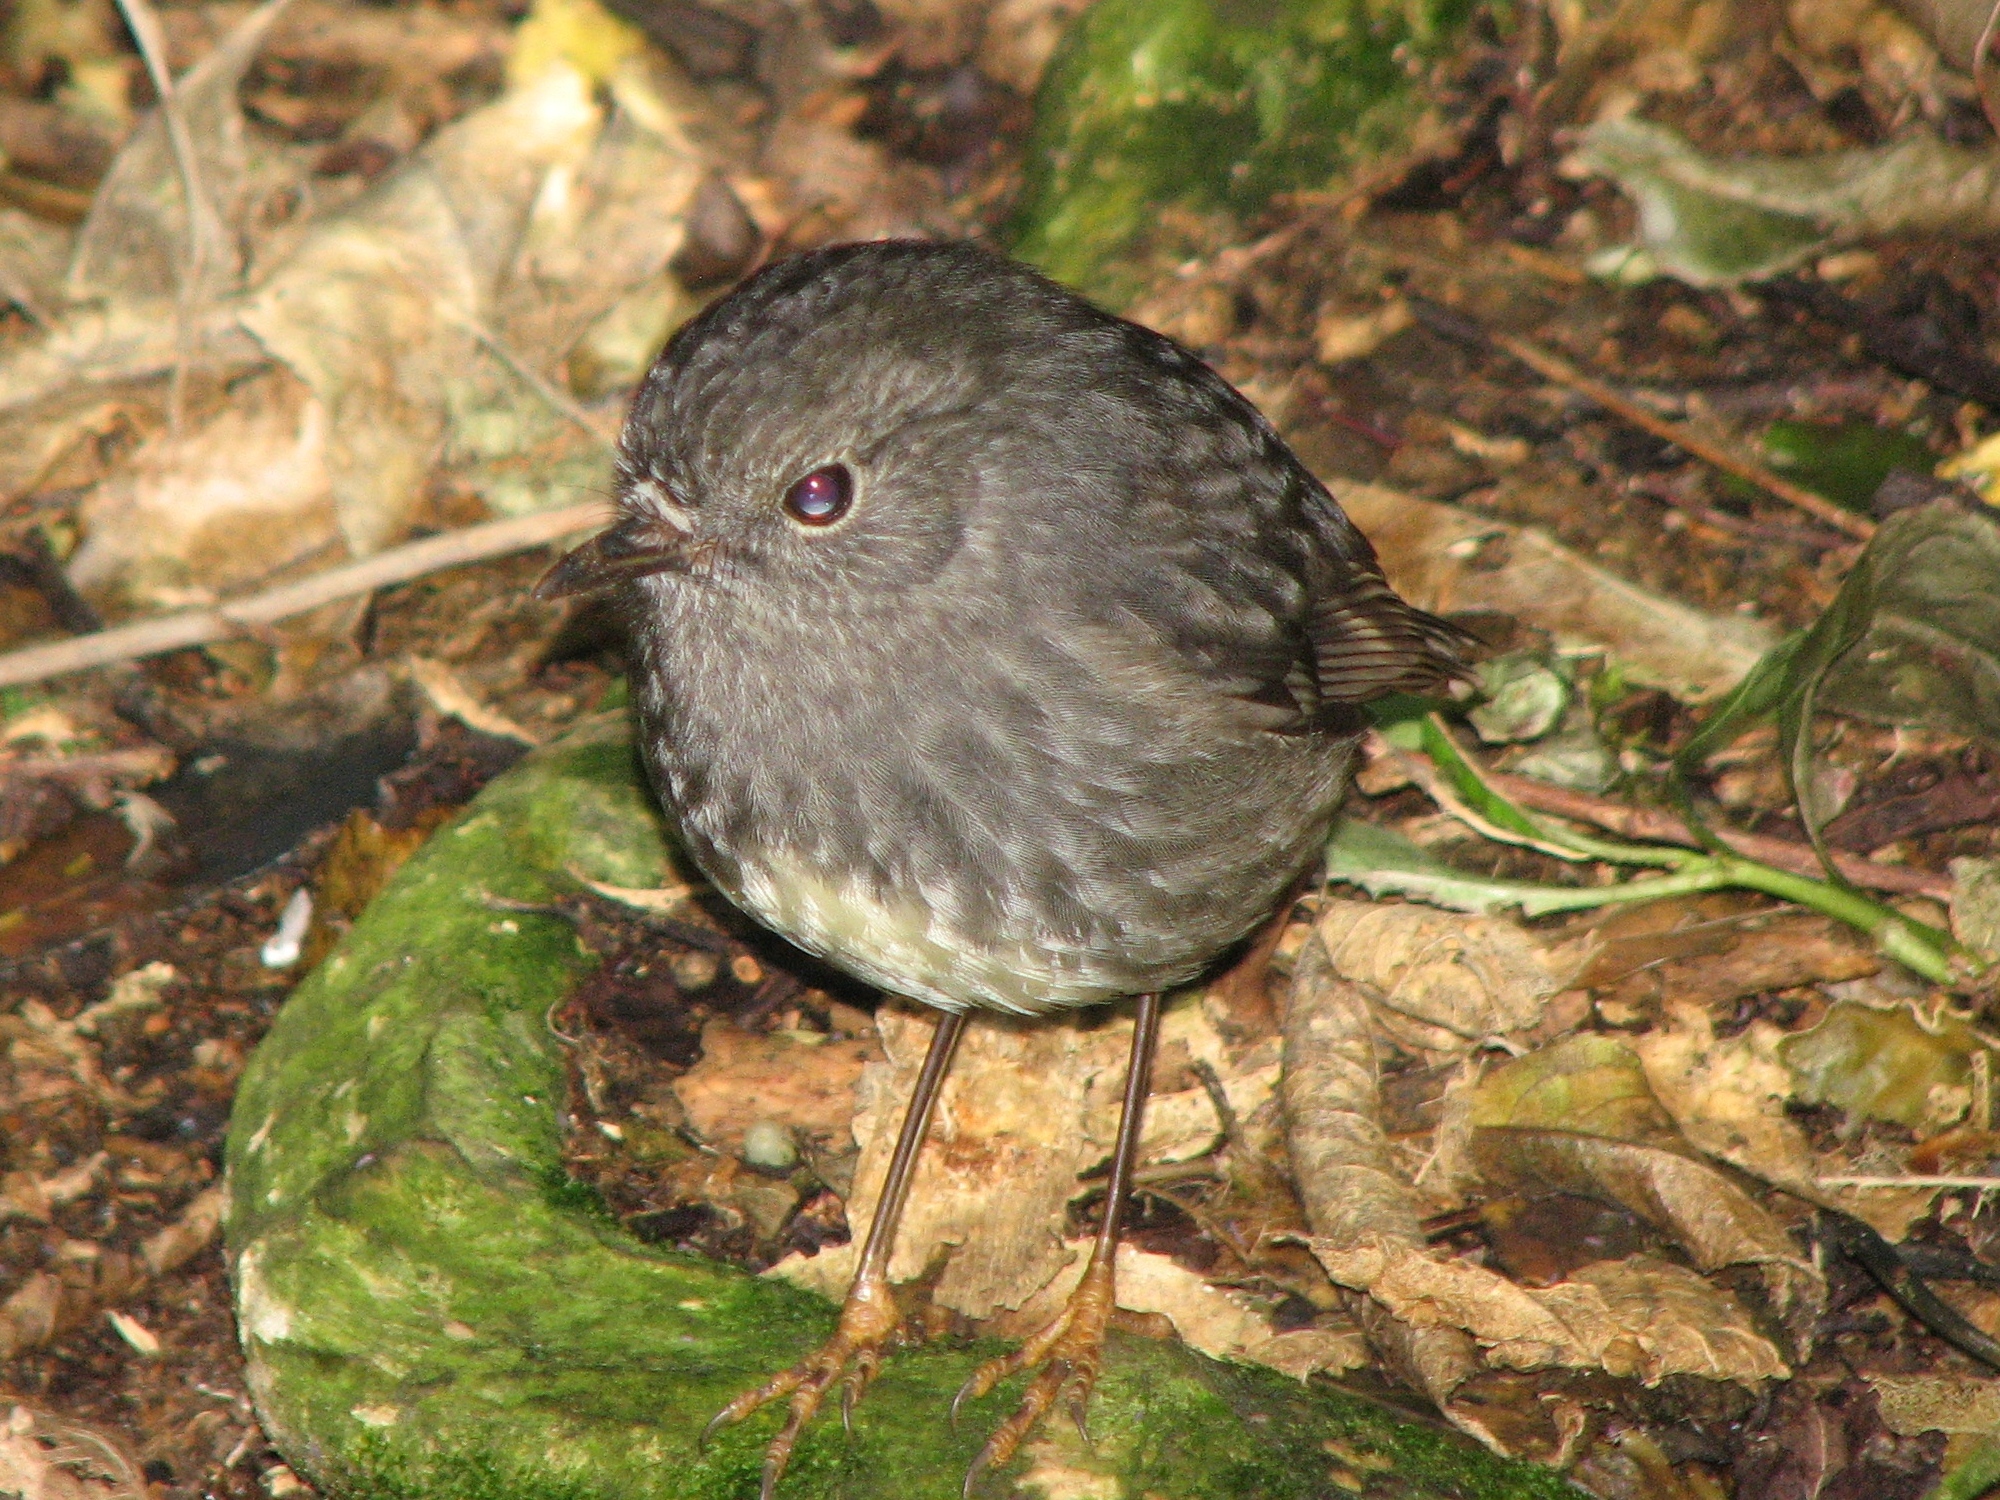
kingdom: Animalia
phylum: Chordata
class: Aves
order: Passeriformes
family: Petroicidae
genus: Petroica
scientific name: Petroica australis
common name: New zealand robin
